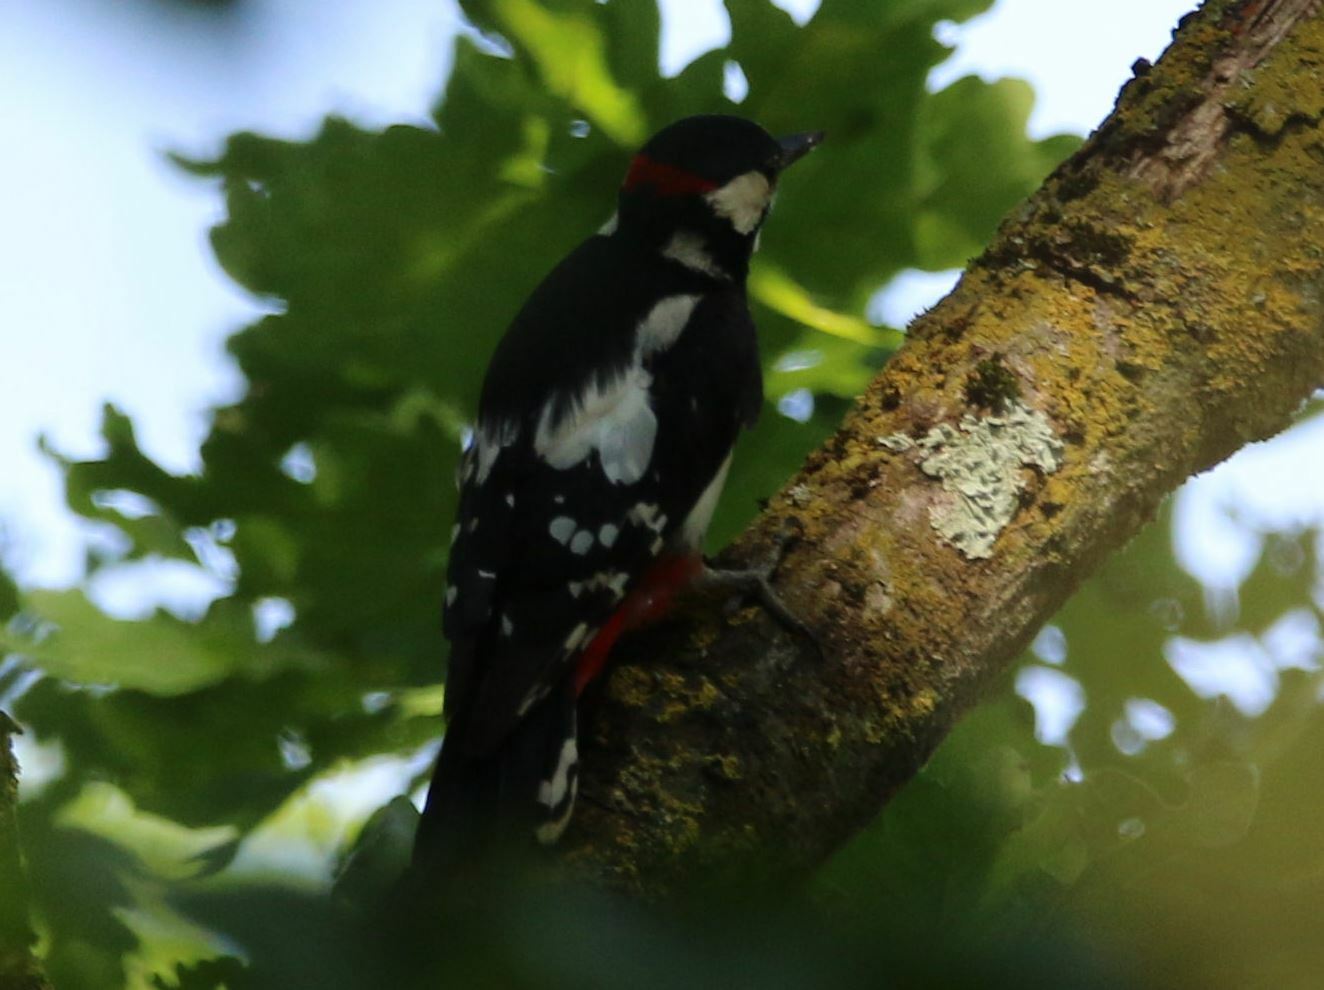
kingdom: Animalia
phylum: Chordata
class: Aves
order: Piciformes
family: Picidae
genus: Dendrocopos
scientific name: Dendrocopos major
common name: Great spotted woodpecker
